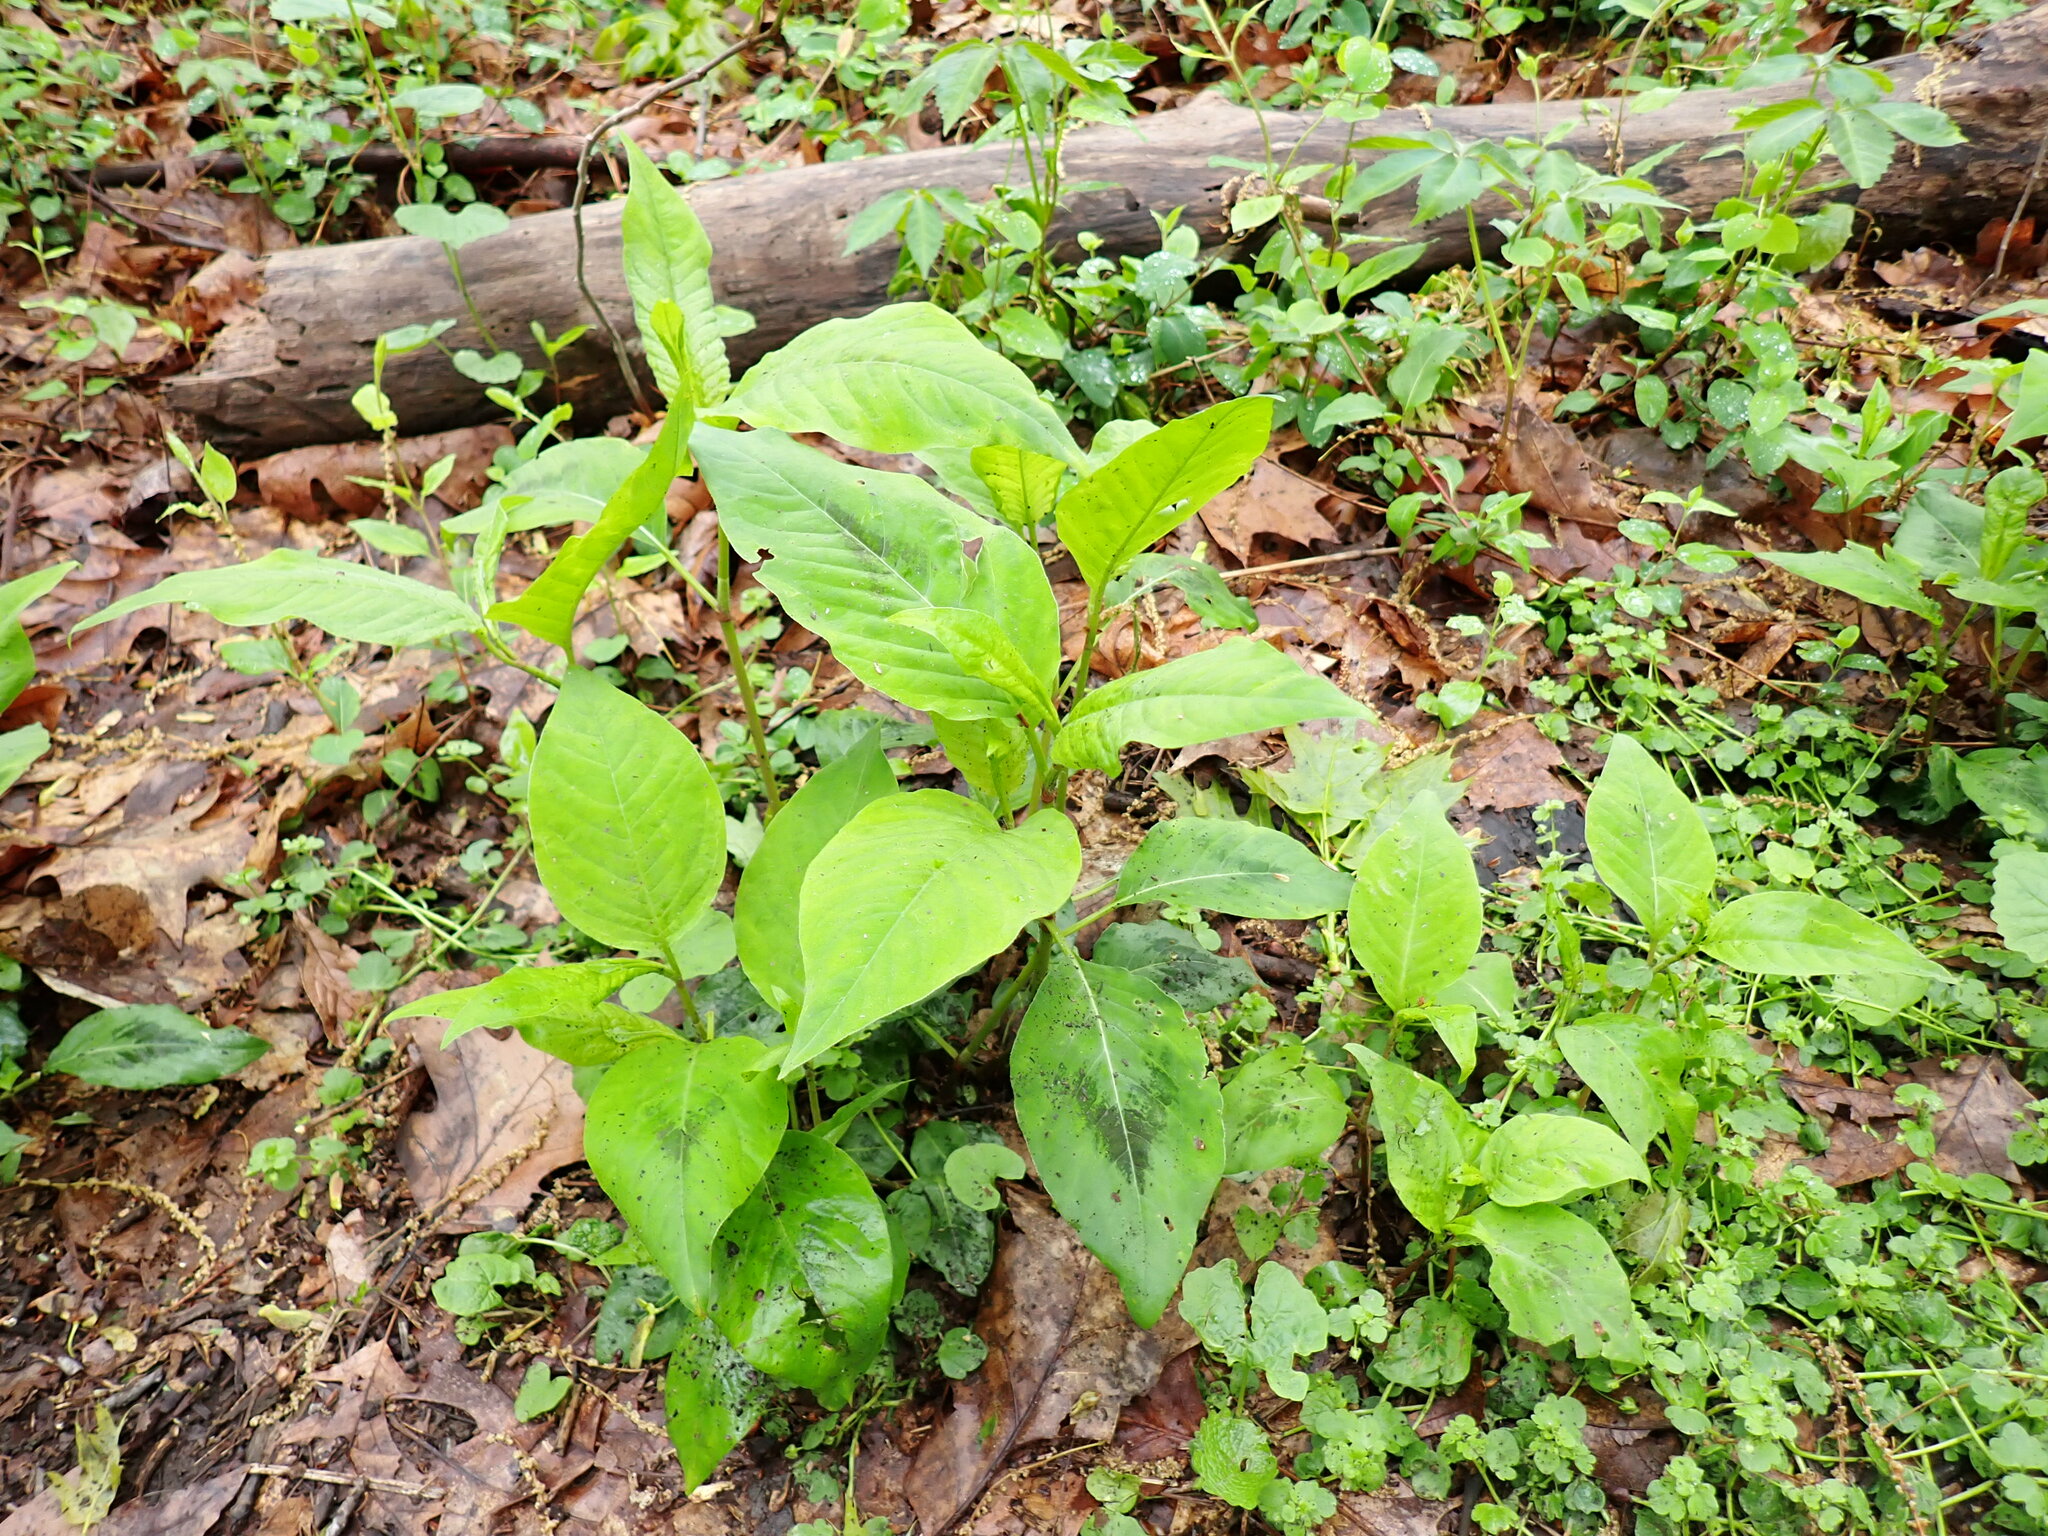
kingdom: Plantae
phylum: Tracheophyta
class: Magnoliopsida
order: Caryophyllales
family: Polygonaceae
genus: Persicaria
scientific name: Persicaria virginiana
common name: Jumpseed
